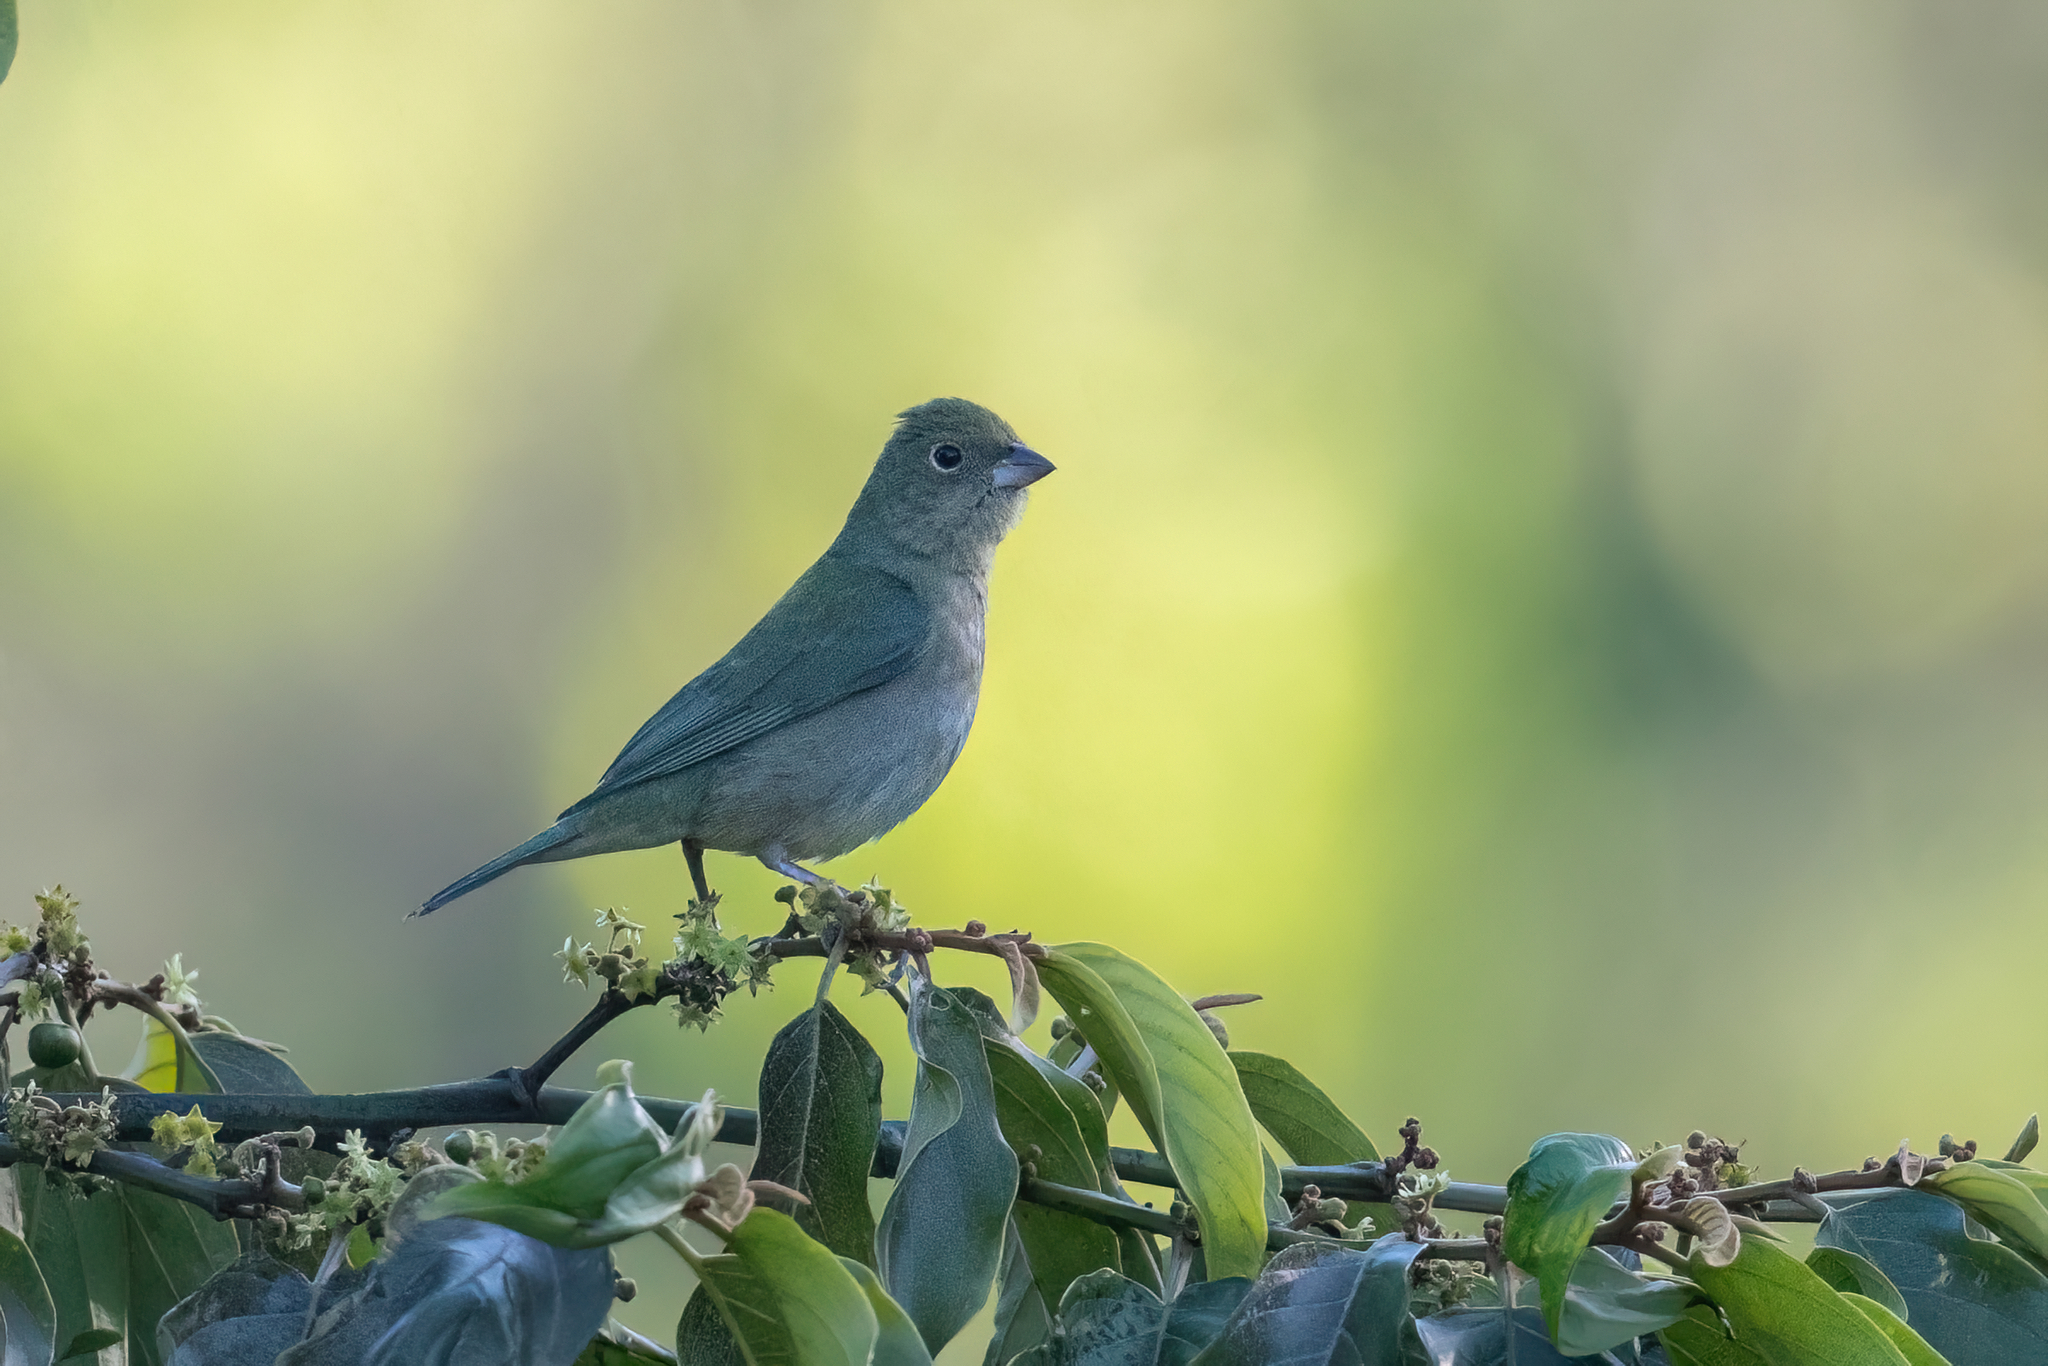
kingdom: Animalia
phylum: Chordata
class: Aves
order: Passeriformes
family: Cardinalidae
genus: Passerina
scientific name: Passerina ciris
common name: Painted bunting
